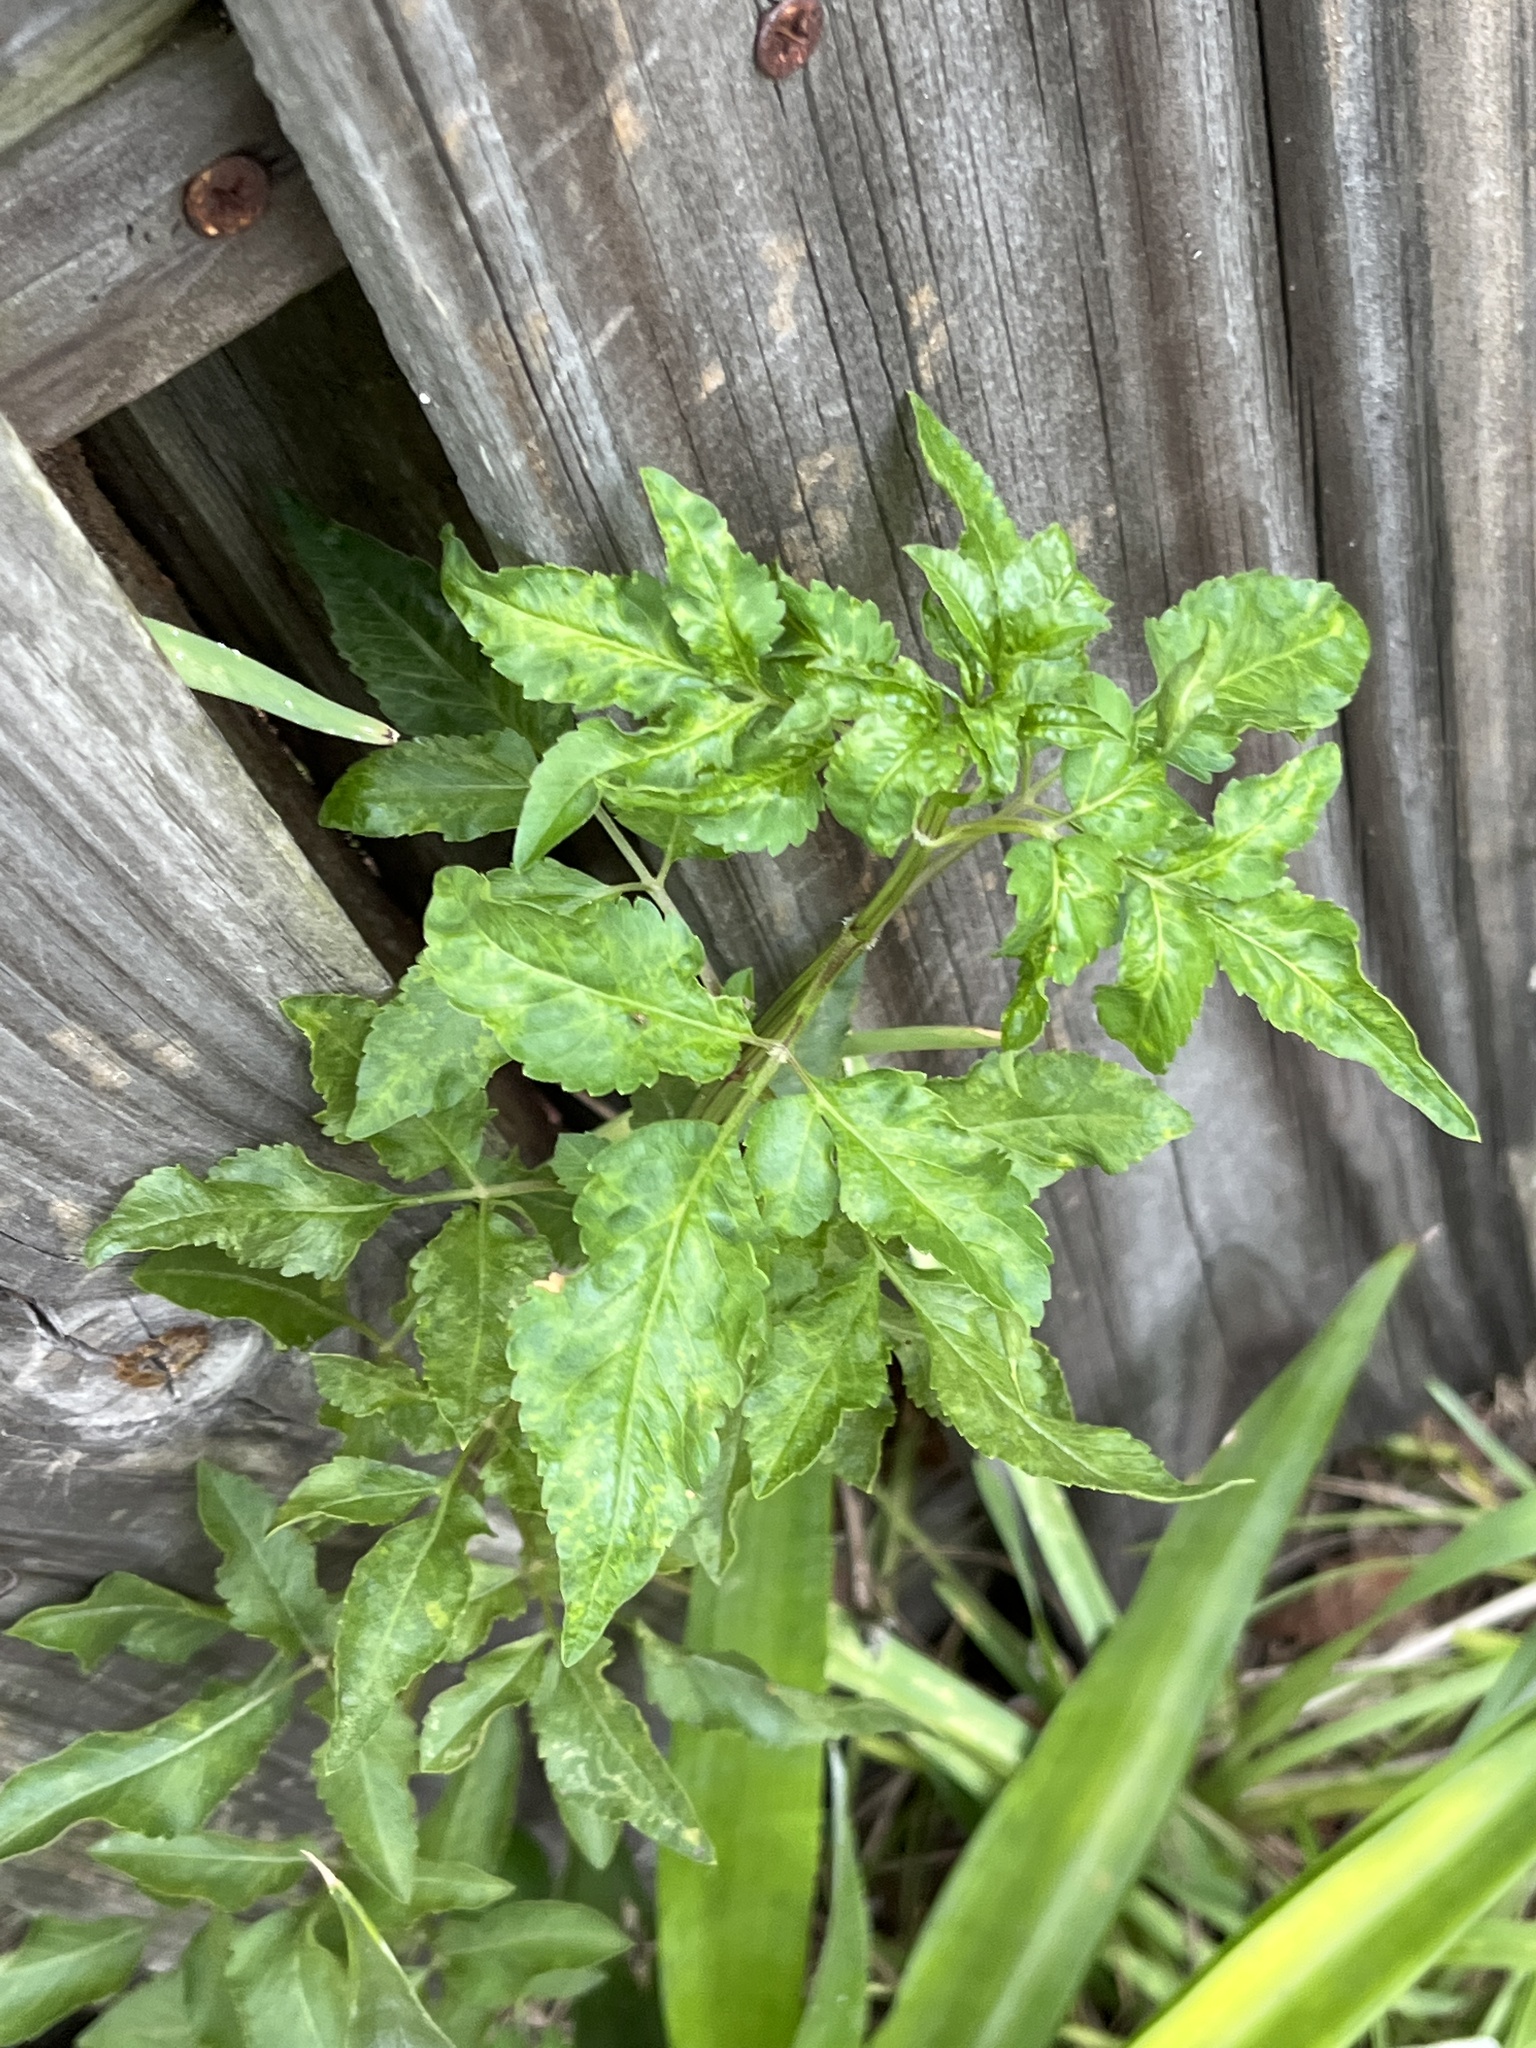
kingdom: Plantae
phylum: Tracheophyta
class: Magnoliopsida
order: Asterales
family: Asteraceae
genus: Bidens
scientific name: Bidens alba
